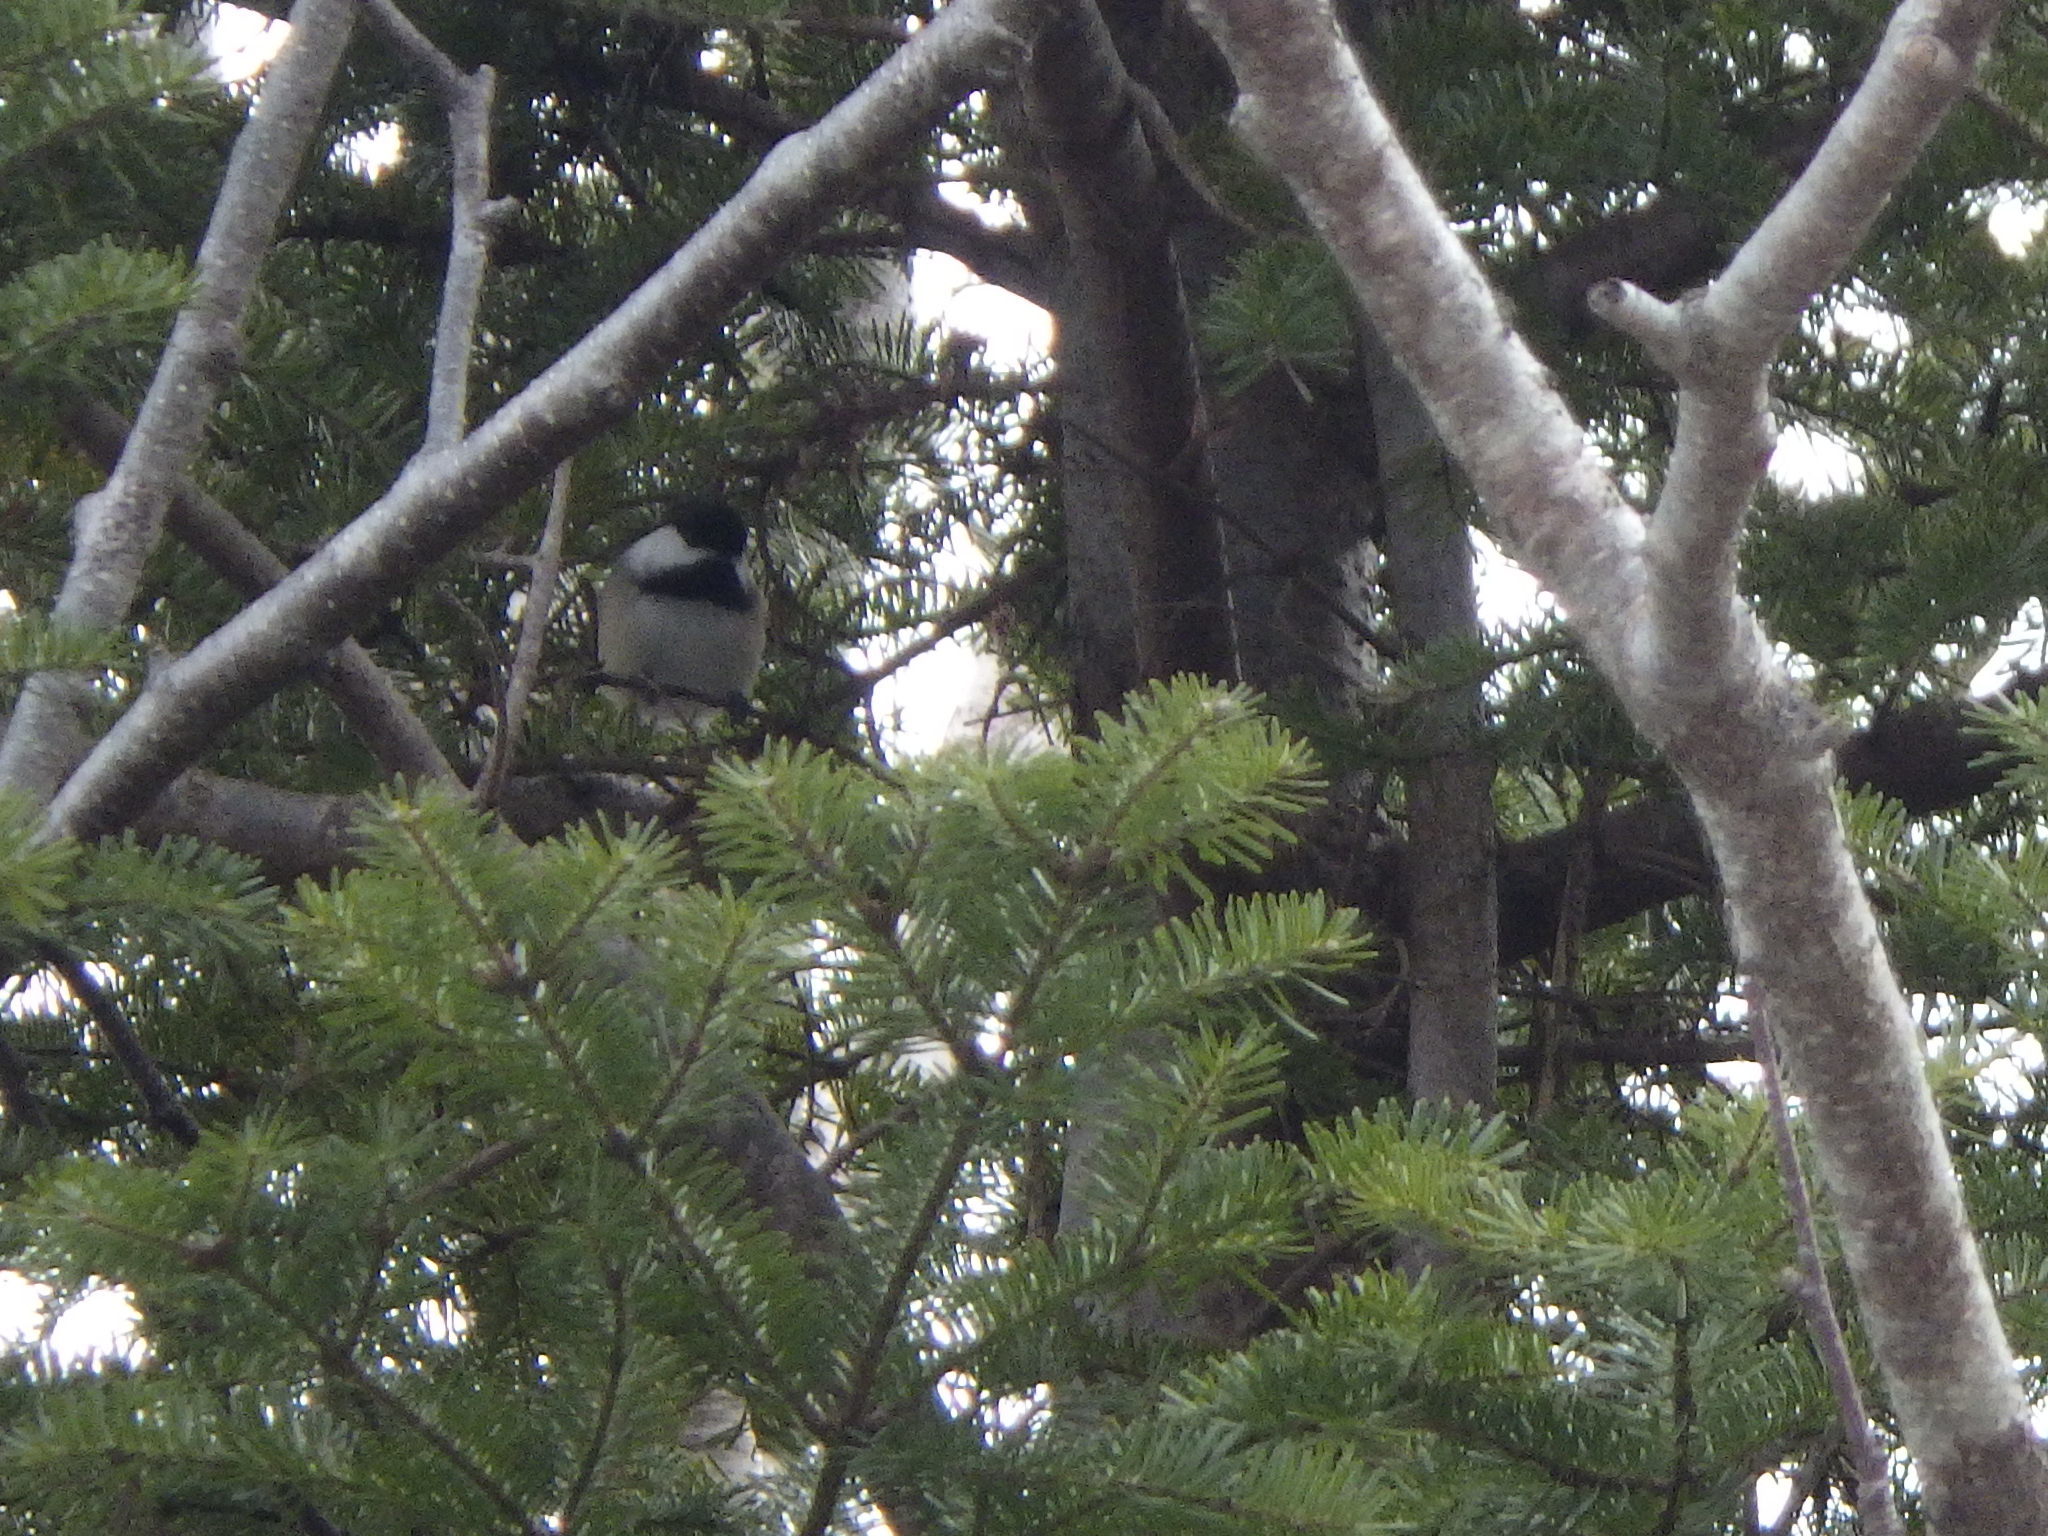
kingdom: Animalia
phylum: Chordata
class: Aves
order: Passeriformes
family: Paridae
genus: Poecile
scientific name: Poecile atricapillus
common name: Black-capped chickadee
